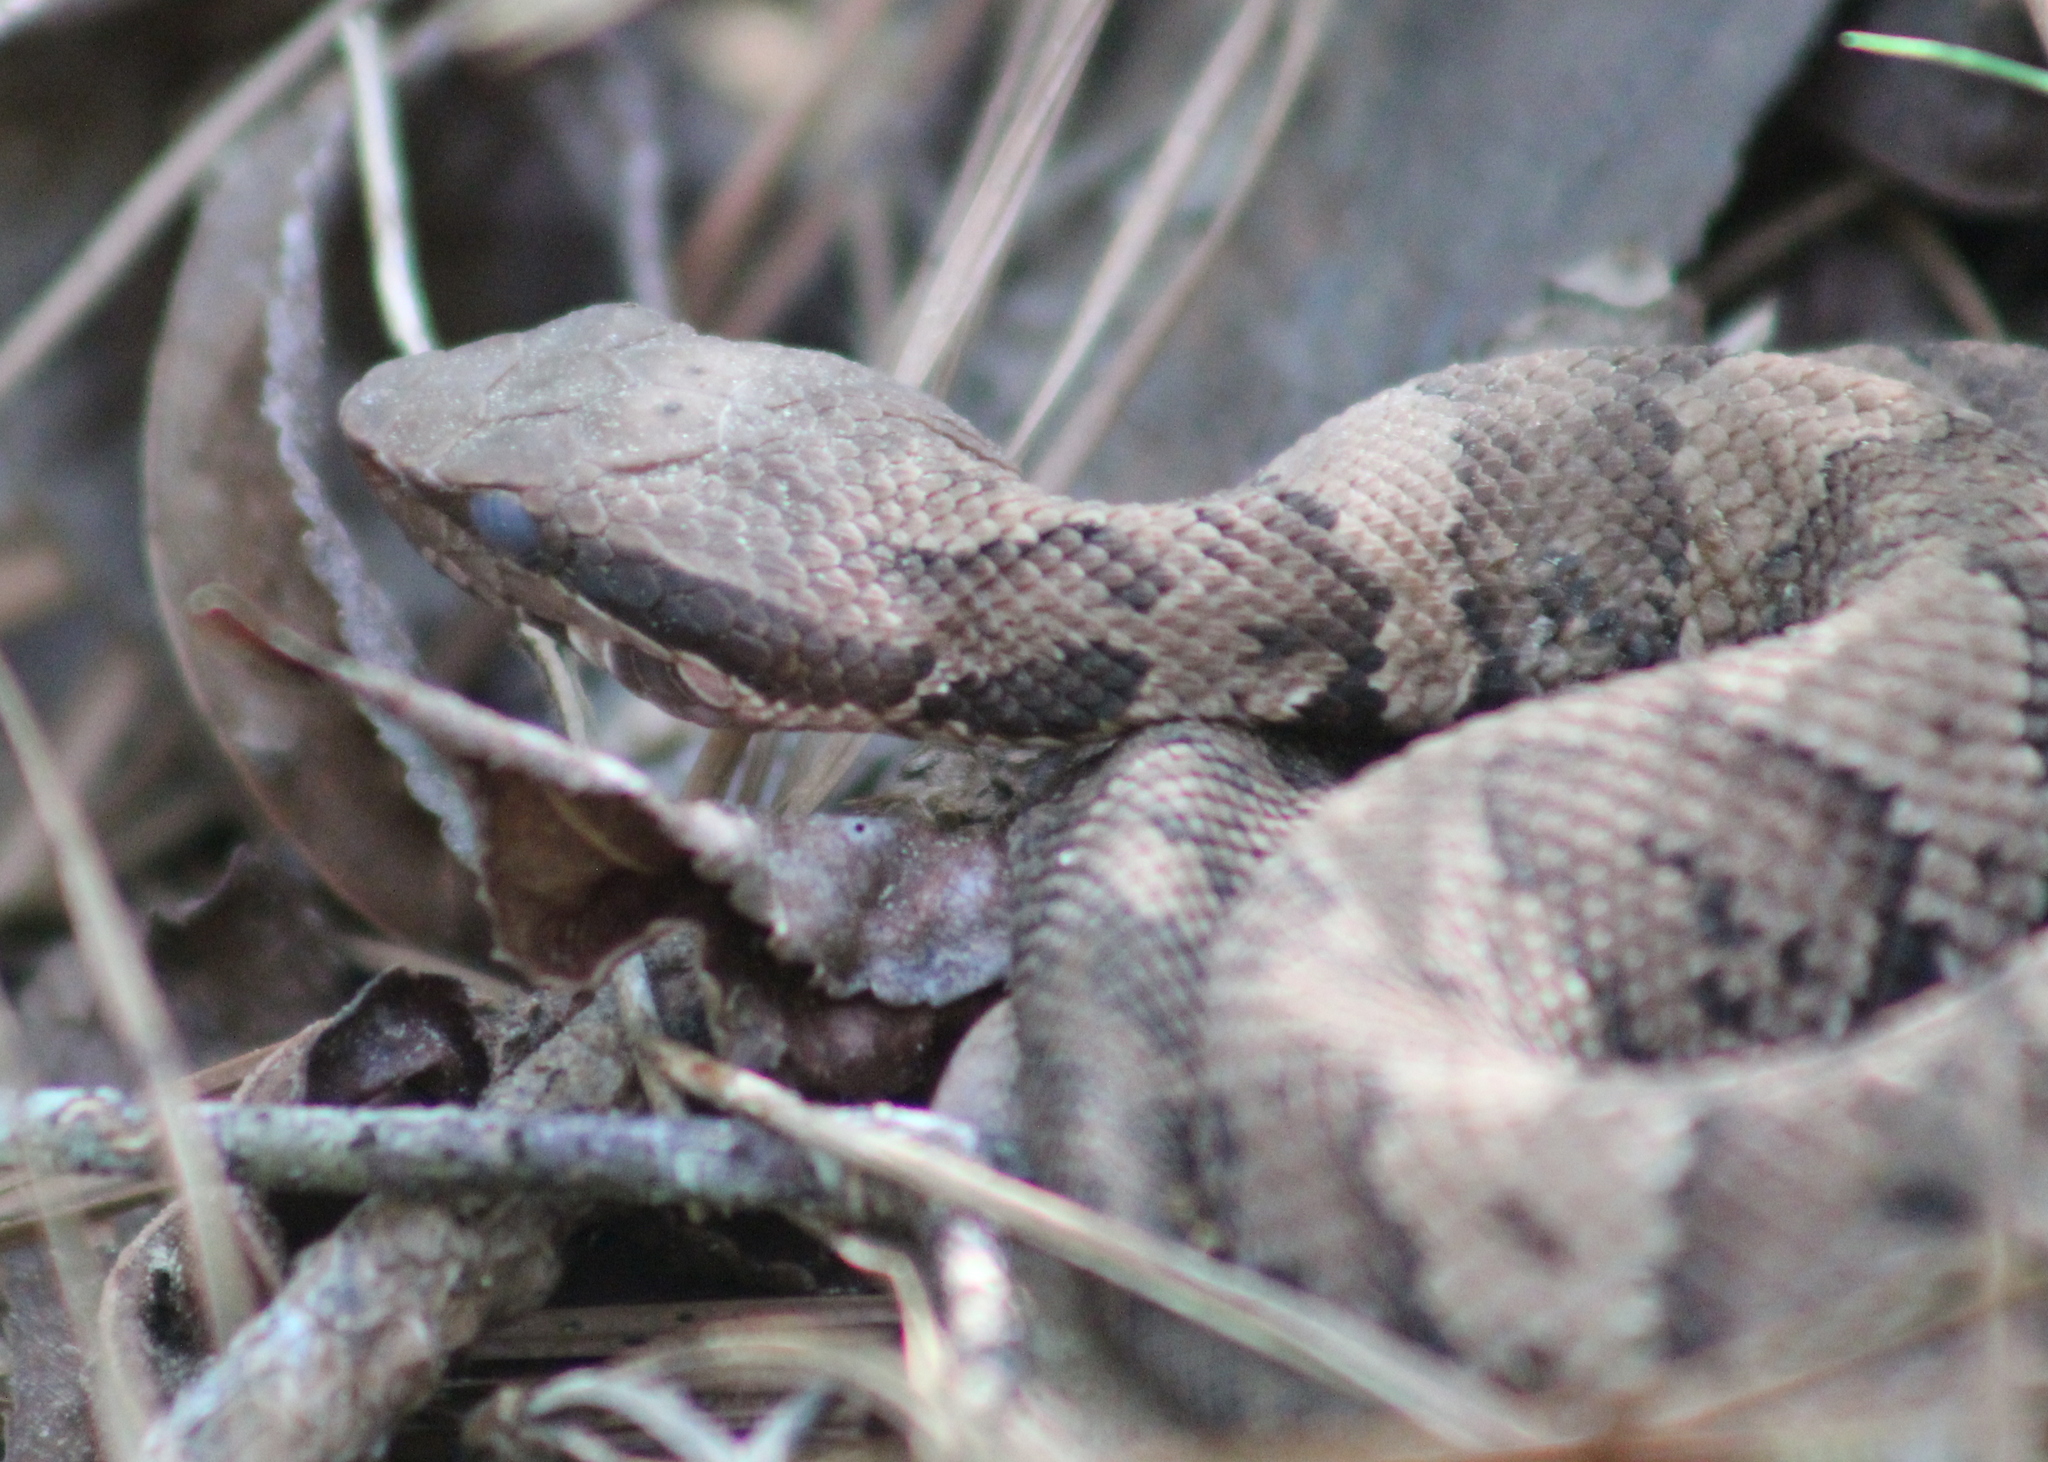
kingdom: Animalia
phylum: Chordata
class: Squamata
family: Viperidae
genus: Agkistrodon
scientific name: Agkistrodon piscivorus
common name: Cottonmouth
